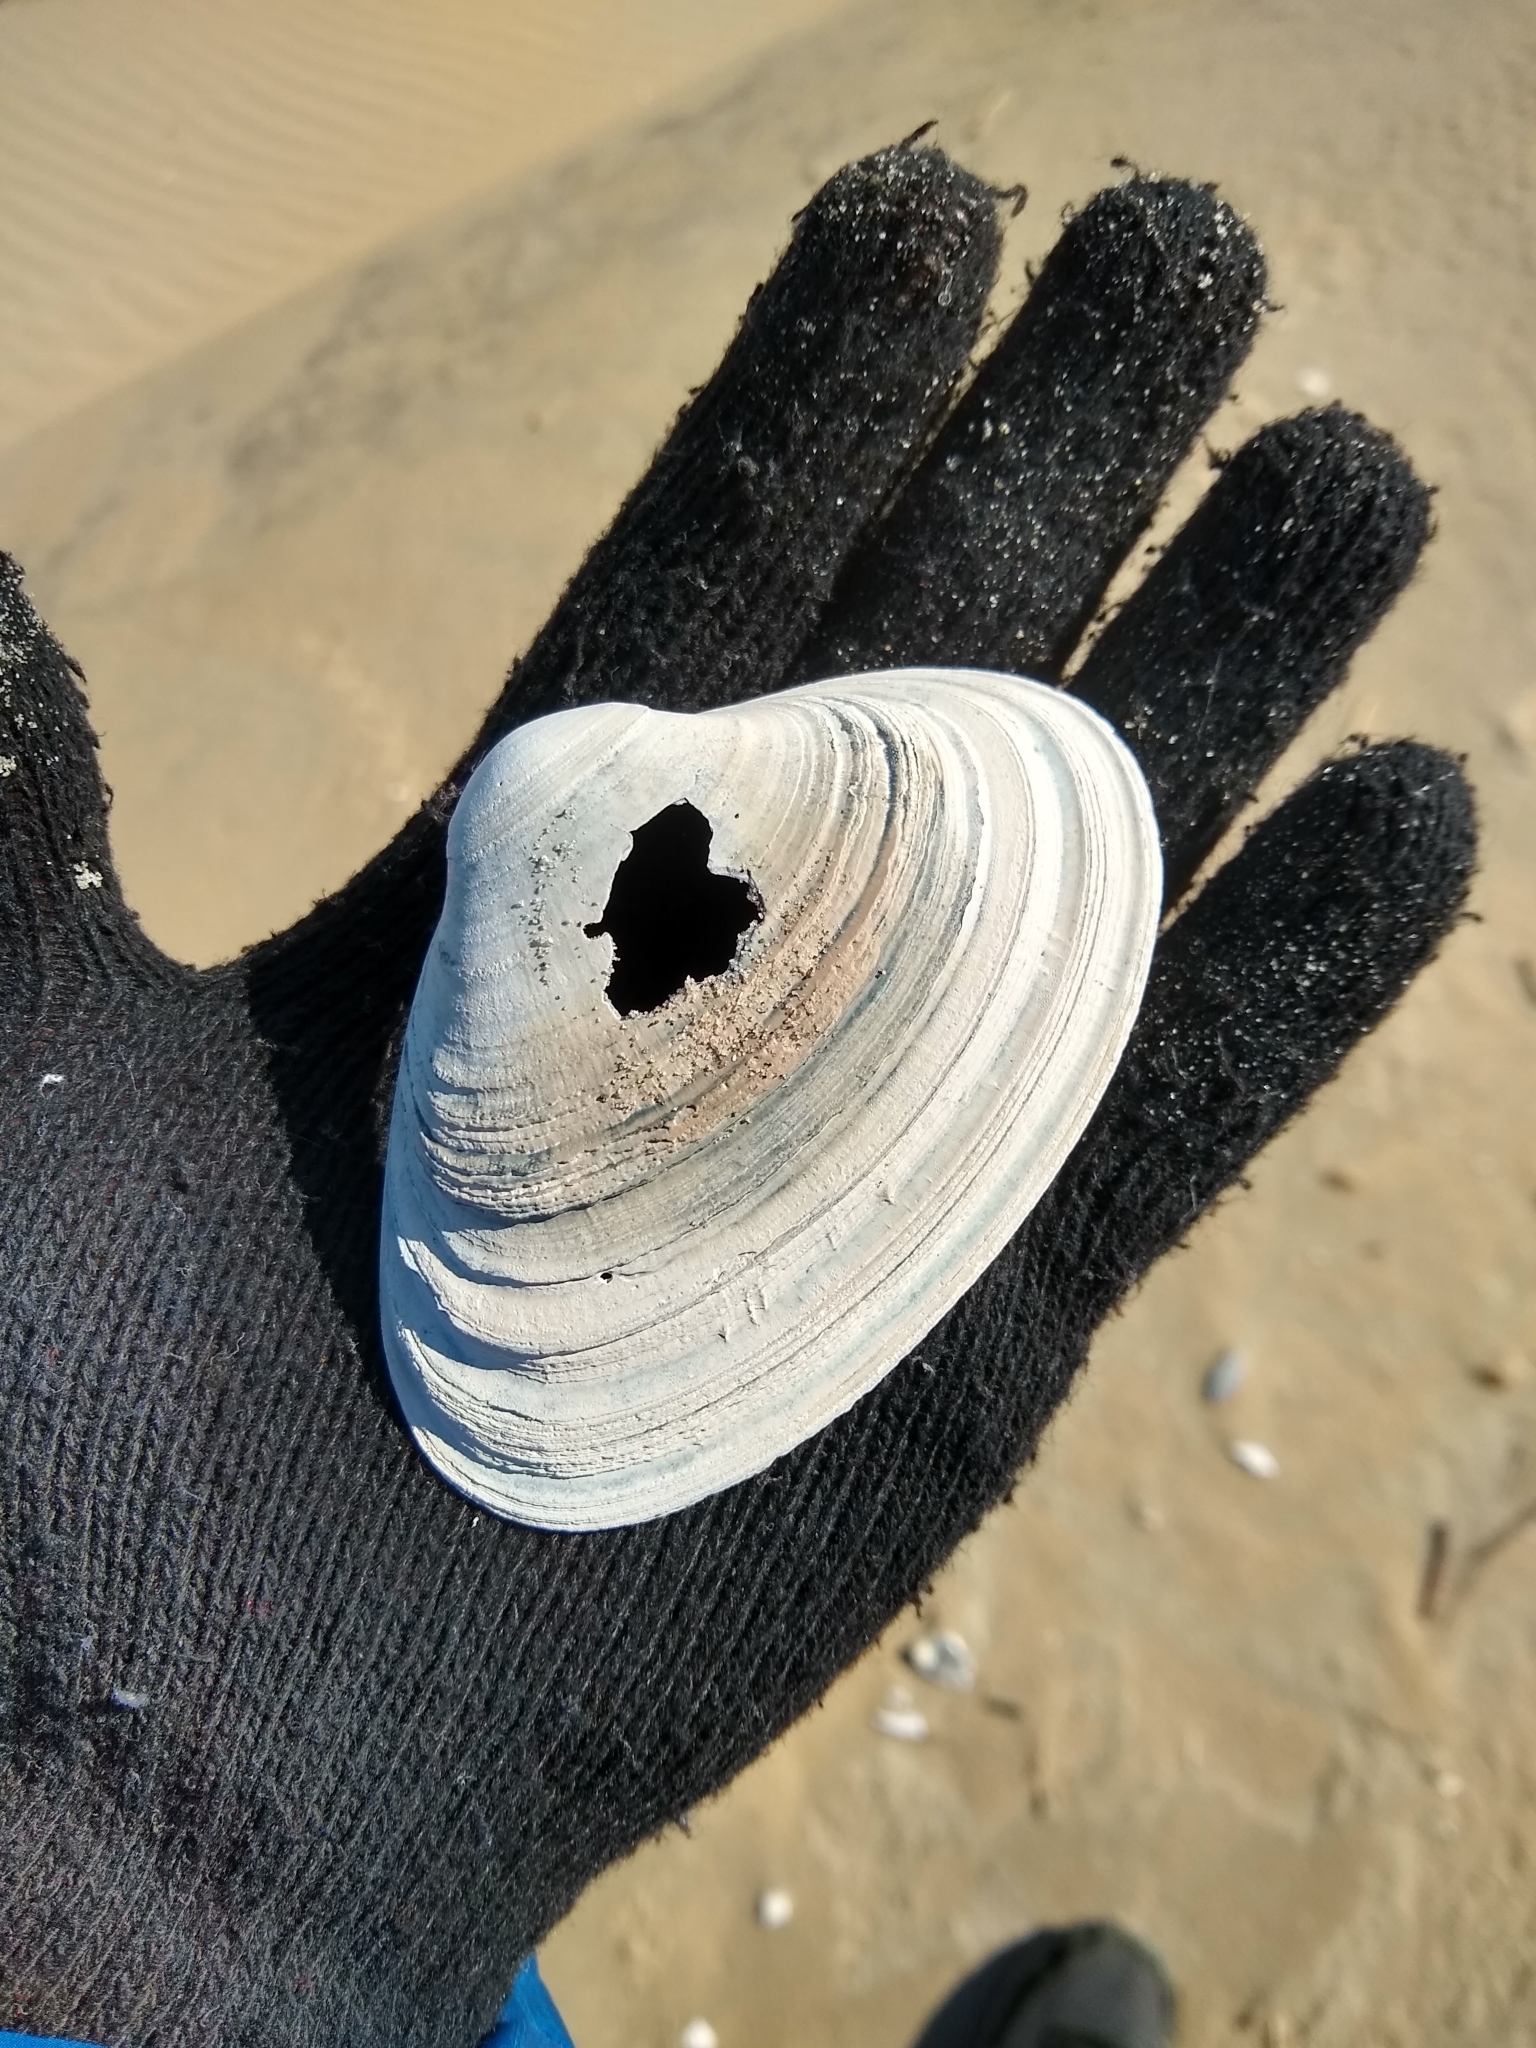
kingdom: Animalia
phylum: Mollusca
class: Bivalvia
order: Venerida
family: Mactridae
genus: Spisula
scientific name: Spisula solidissima
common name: Atlantic surf clam
